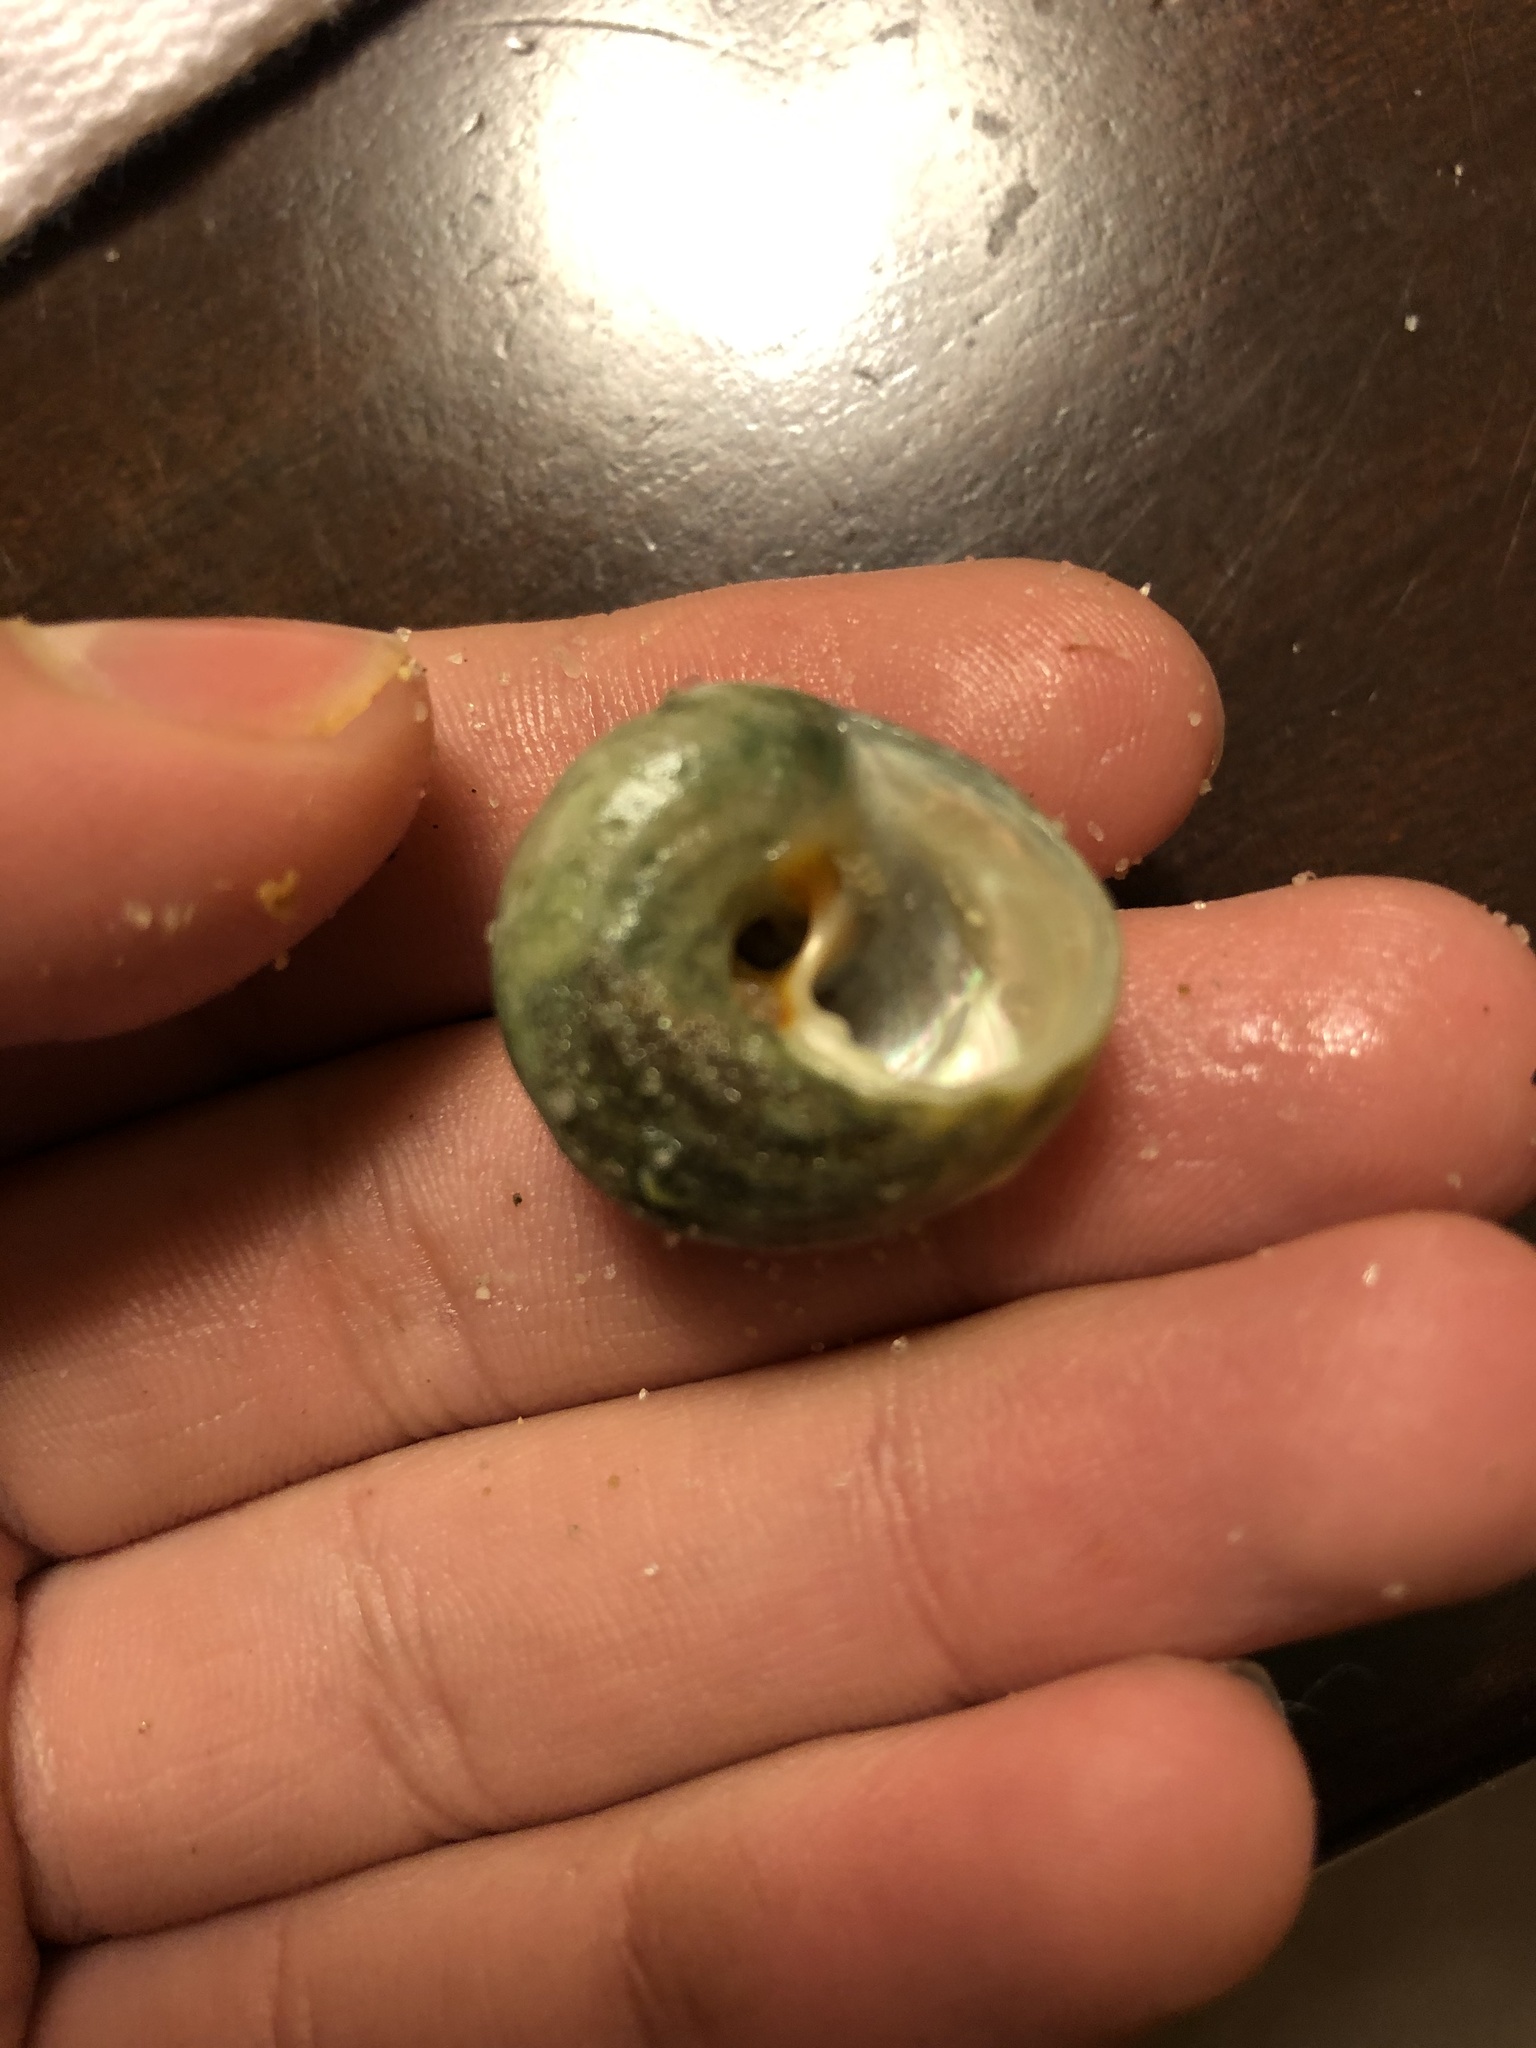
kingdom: Animalia
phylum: Mollusca
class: Gastropoda
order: Trochida
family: Tegulidae
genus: Tegula
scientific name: Tegula aureotincta
